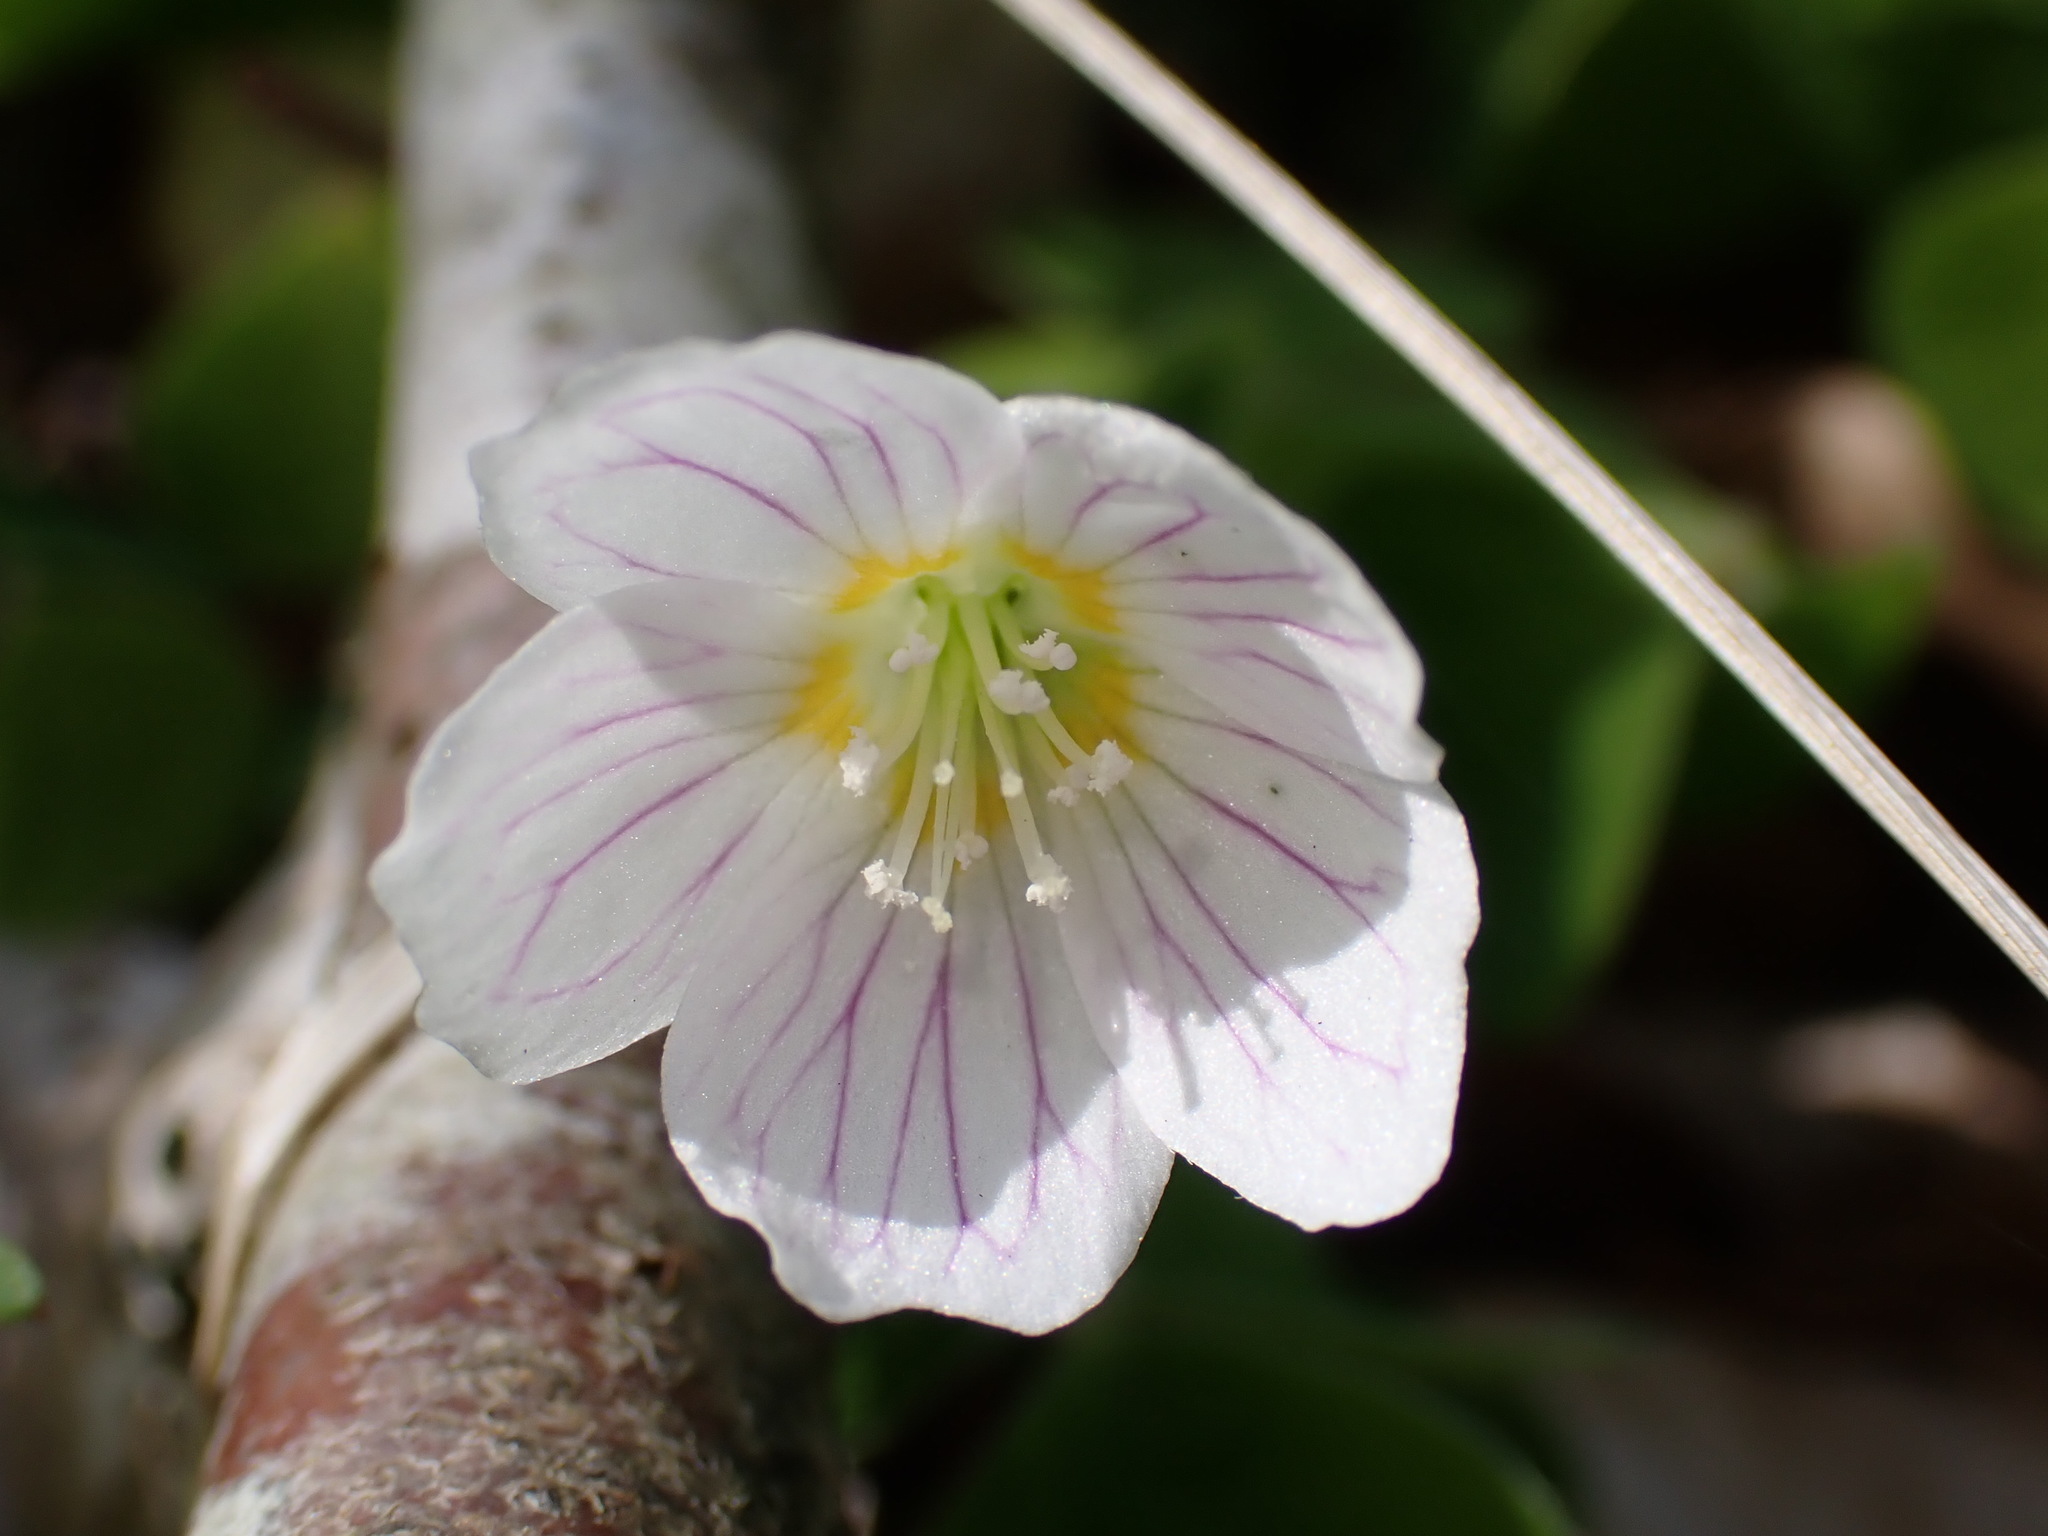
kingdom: Plantae
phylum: Tracheophyta
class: Magnoliopsida
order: Oxalidales
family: Oxalidaceae
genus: Oxalis
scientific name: Oxalis acetosella
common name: Wood-sorrel
